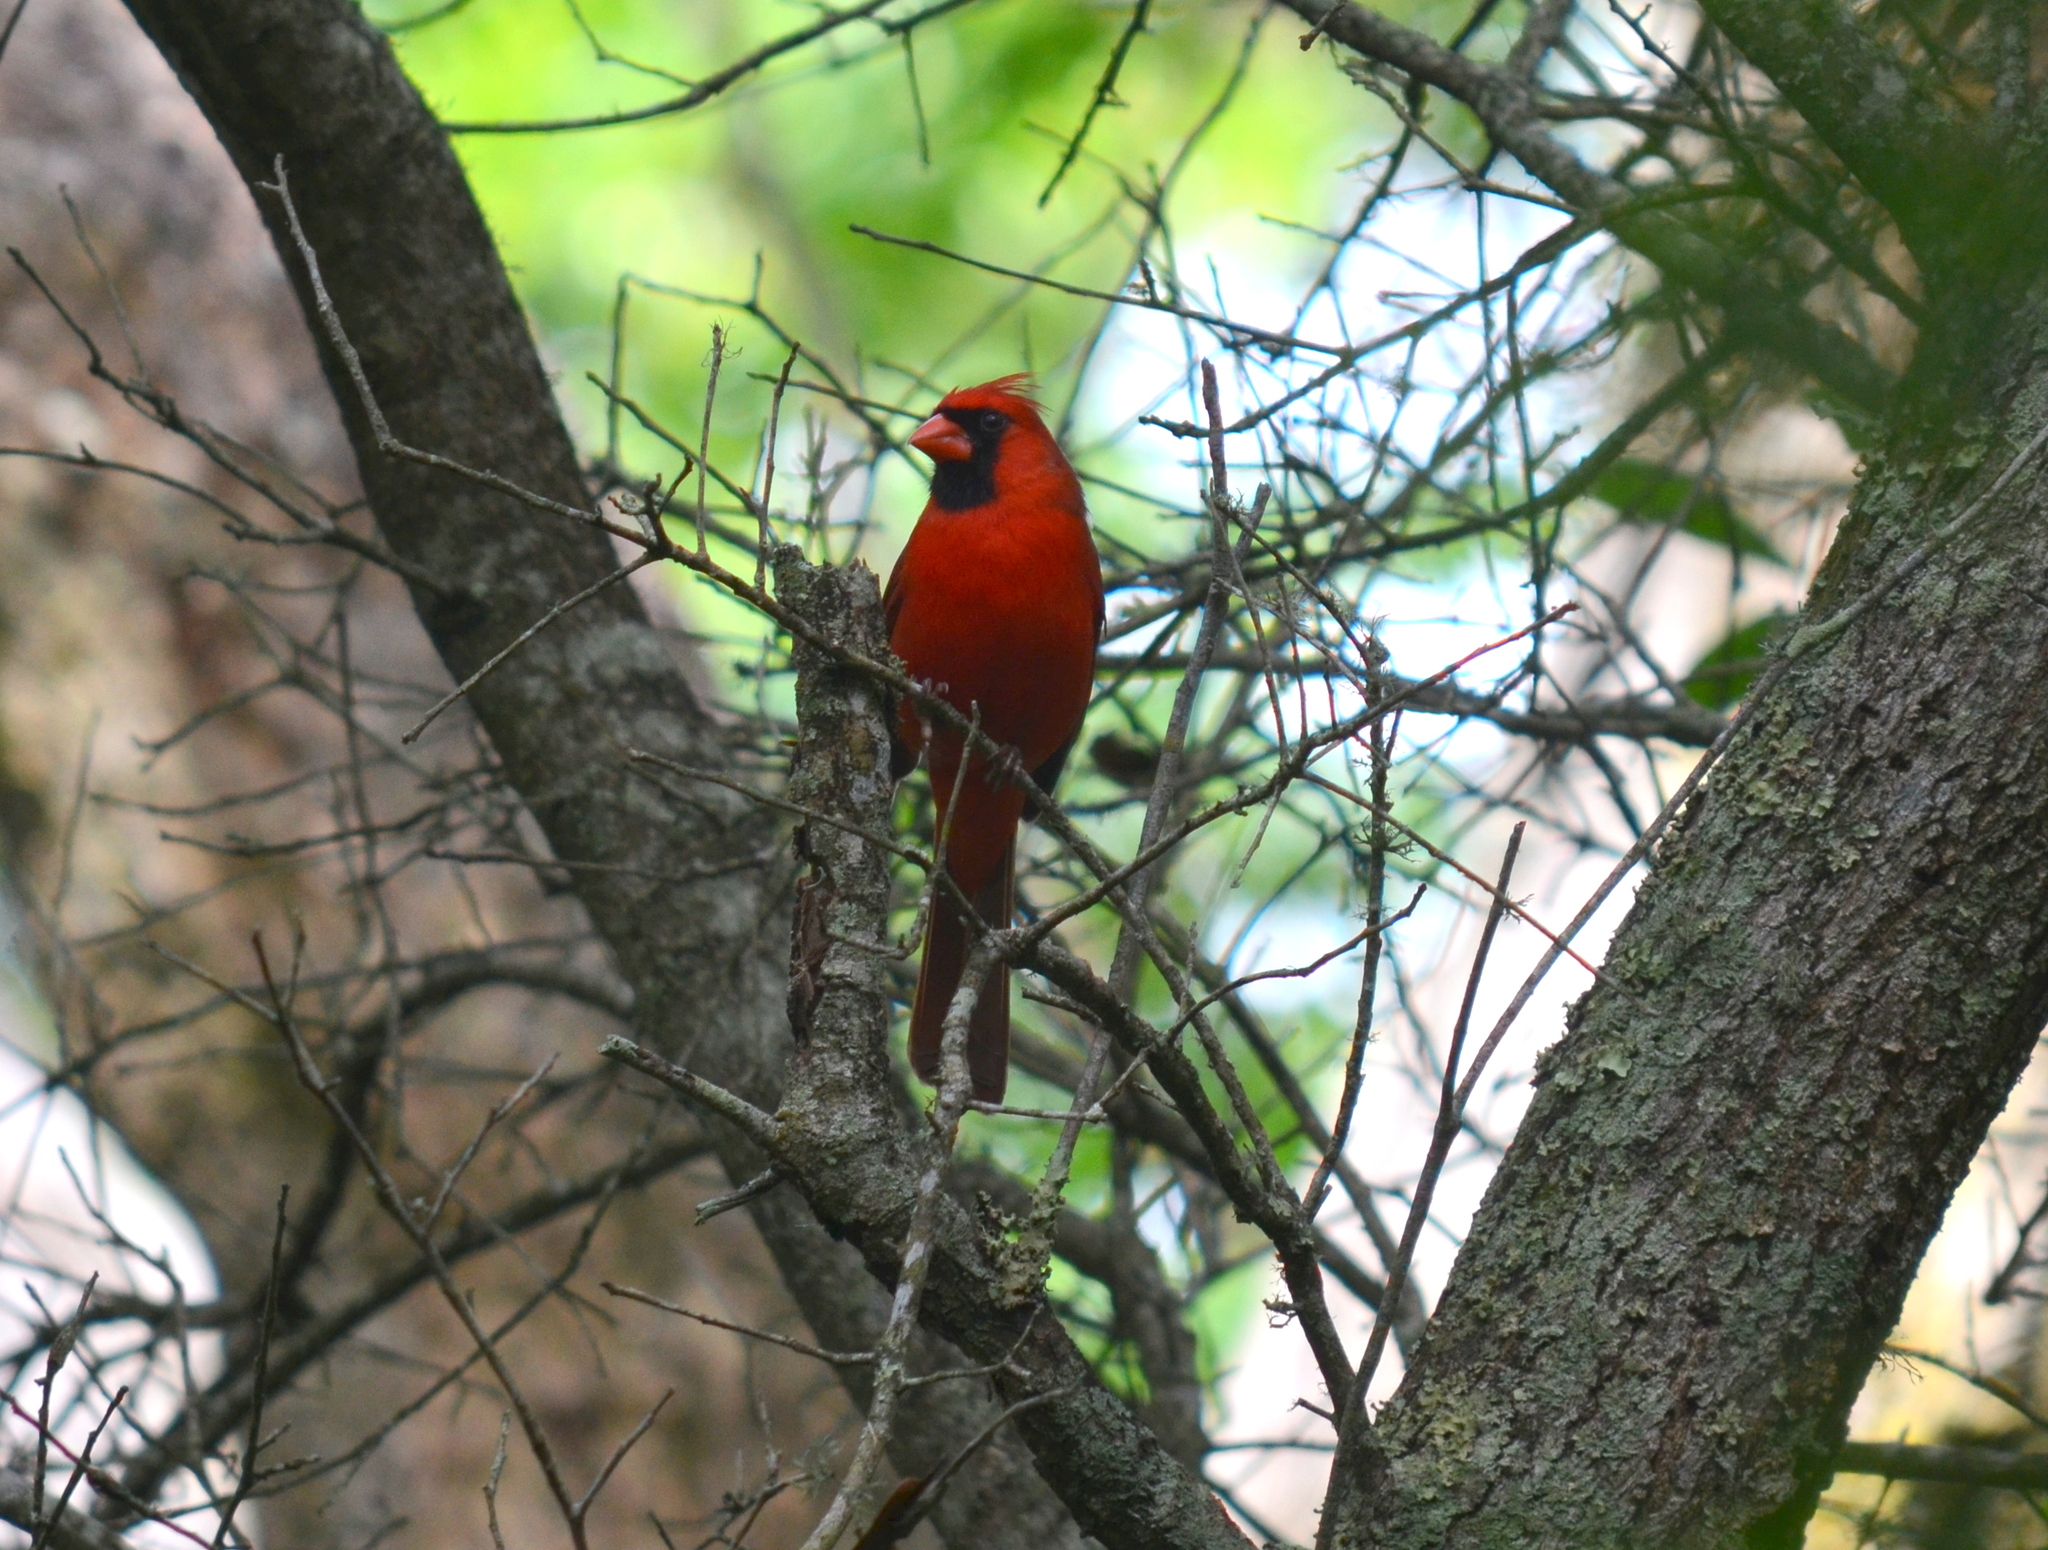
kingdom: Animalia
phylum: Chordata
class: Aves
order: Passeriformes
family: Cardinalidae
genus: Cardinalis
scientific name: Cardinalis cardinalis
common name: Northern cardinal
